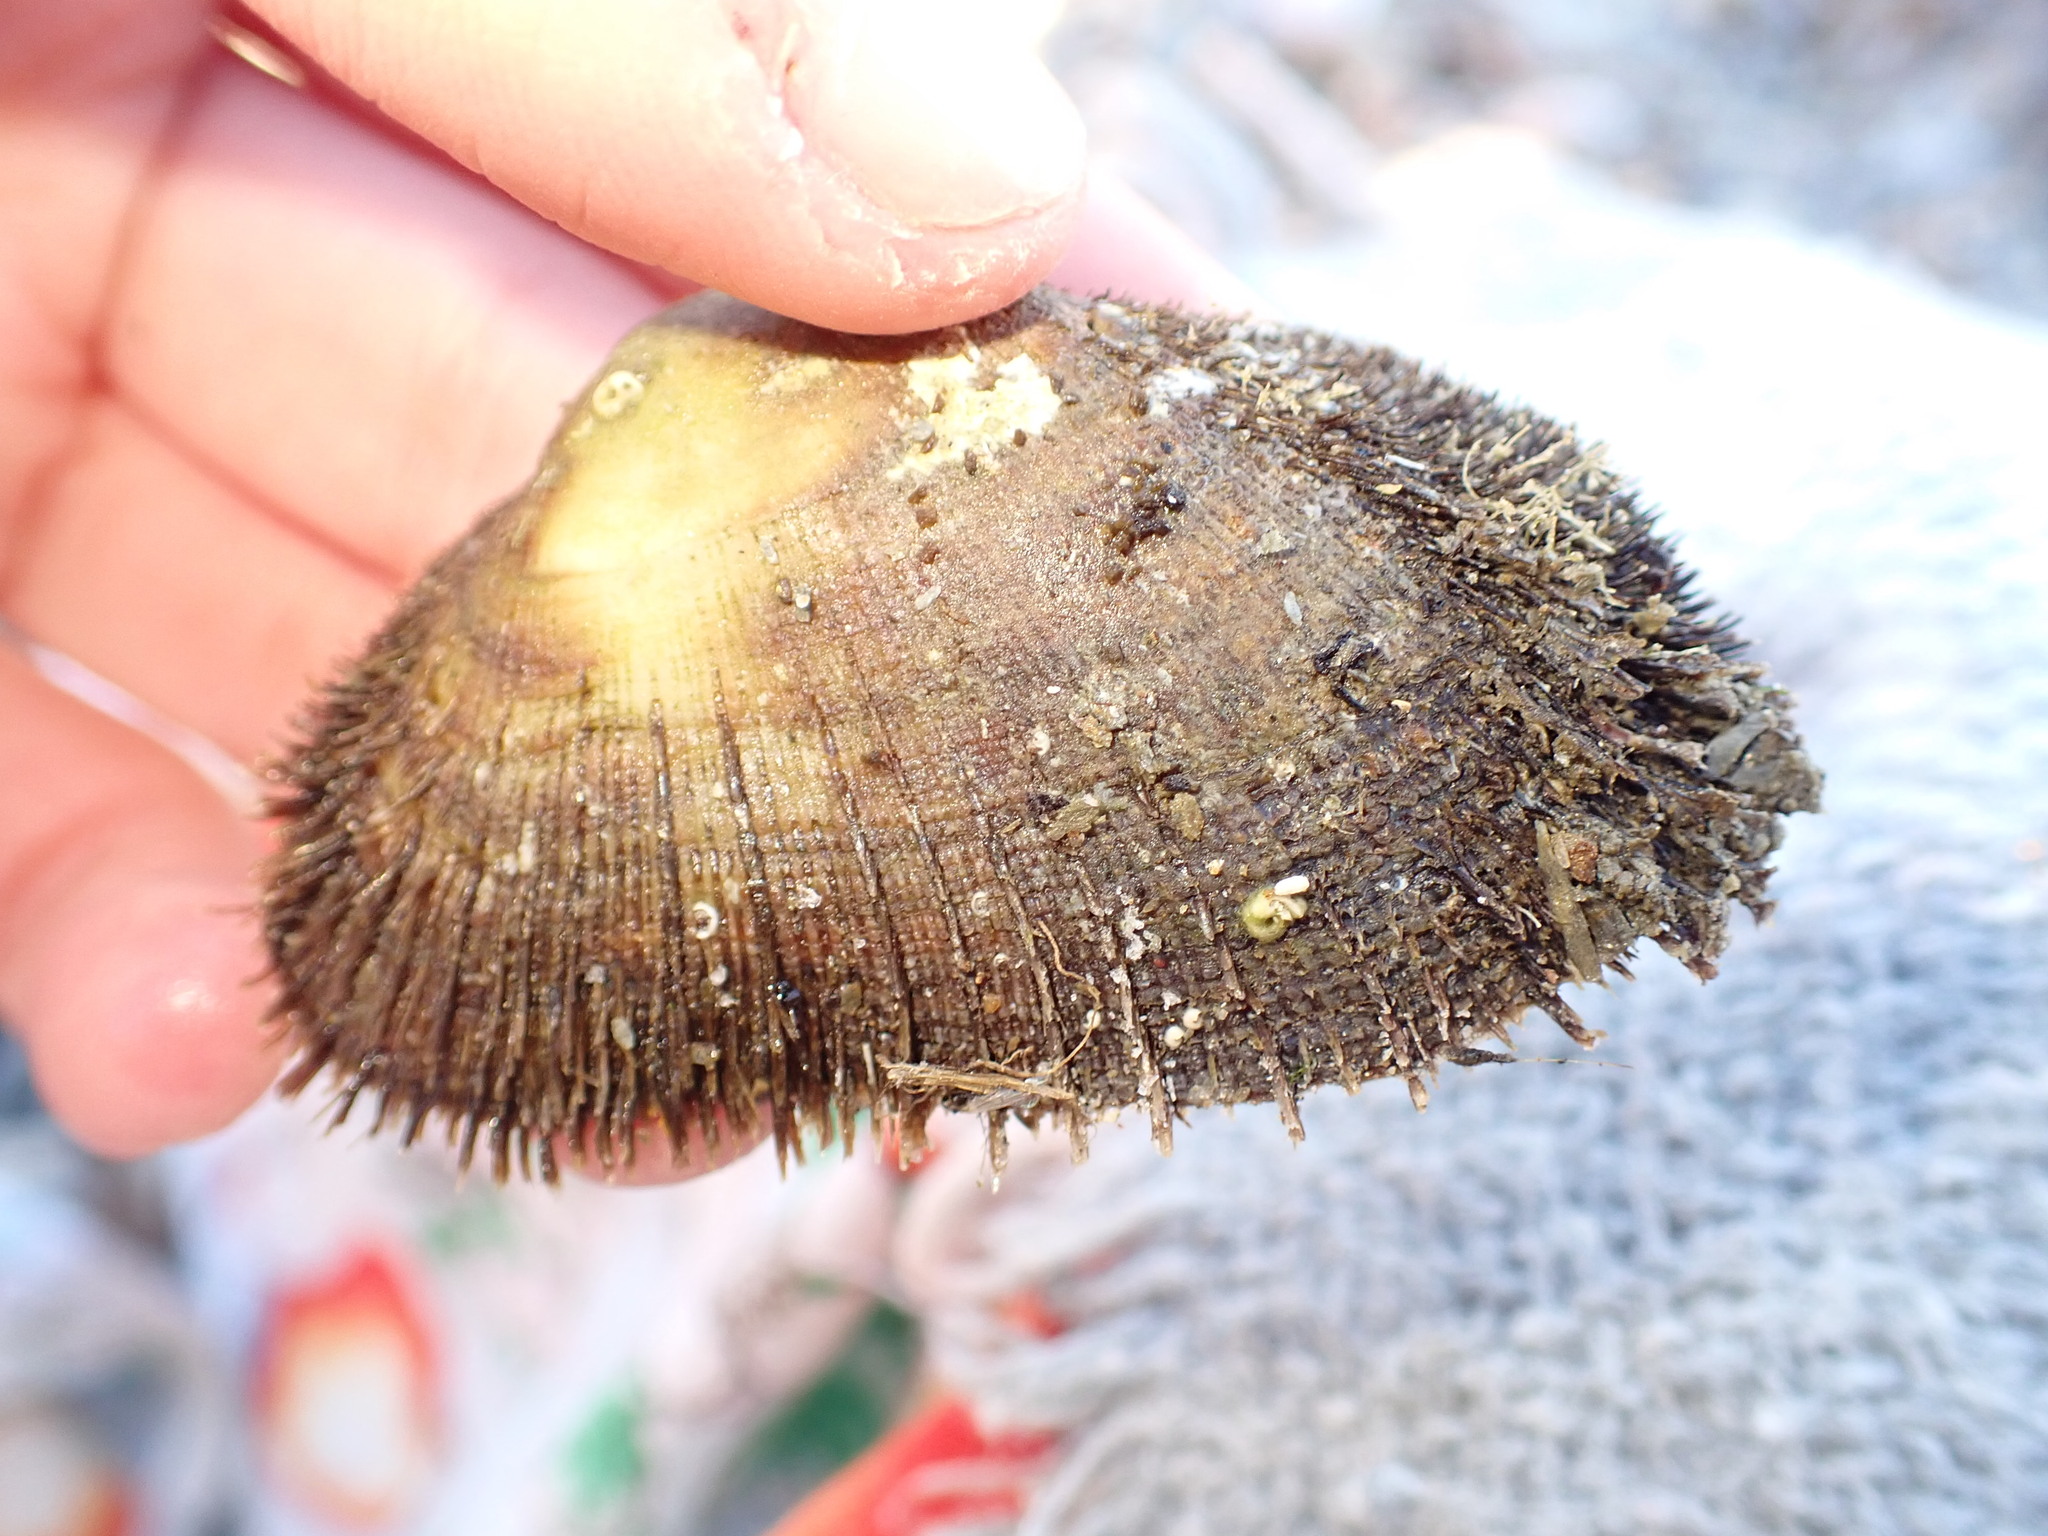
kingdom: Animalia
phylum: Mollusca
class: Bivalvia
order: Arcida
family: Arcidae
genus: Barbatia
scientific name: Barbatia barbata
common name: Bearded ark
